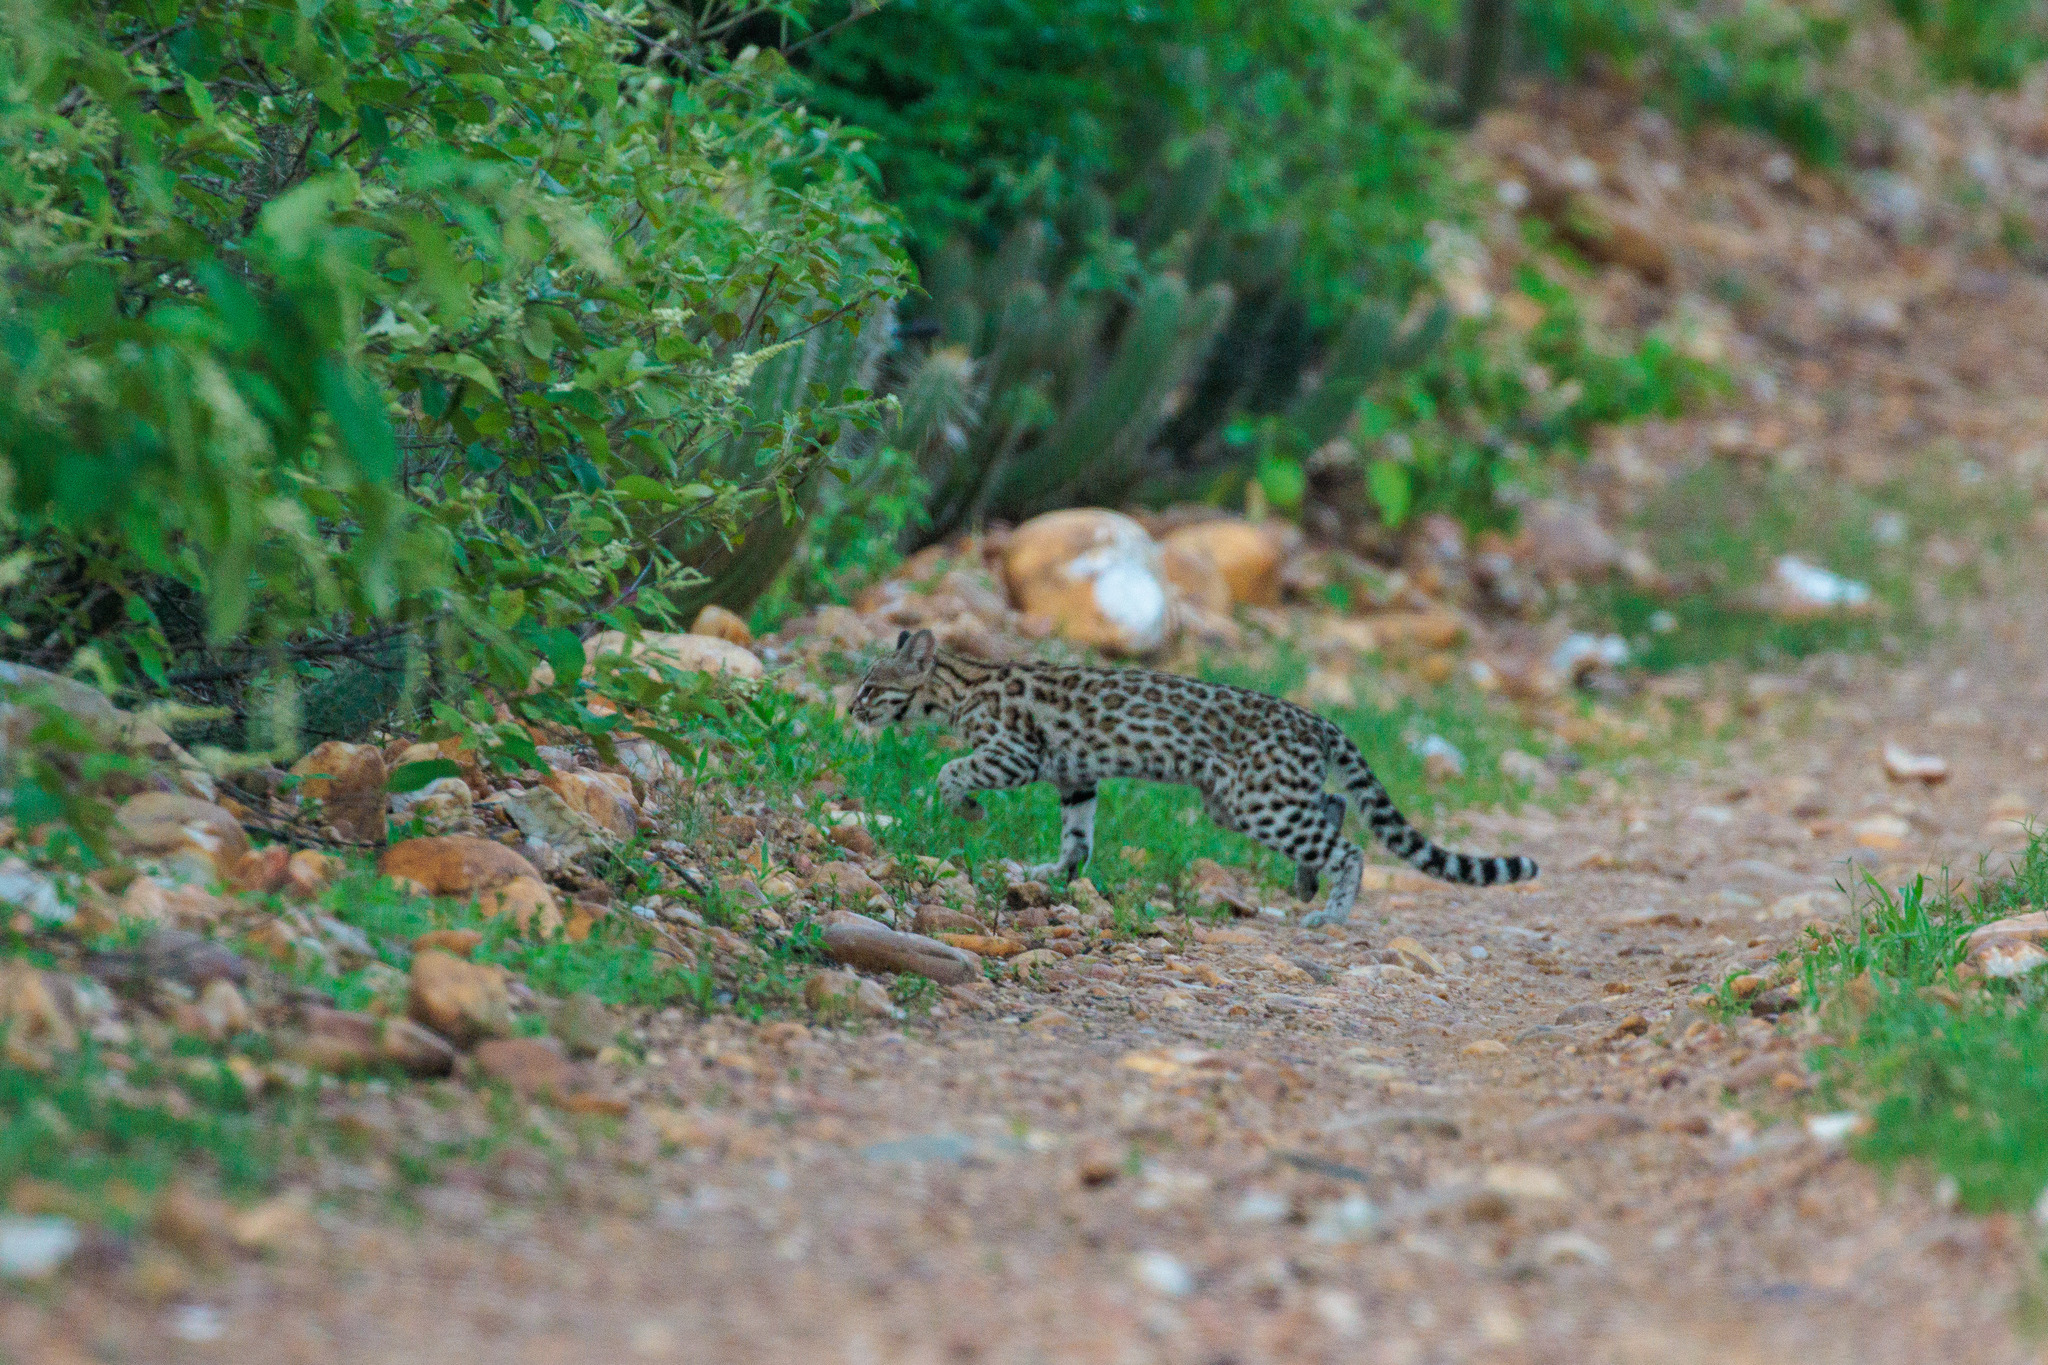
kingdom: Animalia
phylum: Chordata
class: Mammalia
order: Carnivora
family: Felidae
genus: Leopardus
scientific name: Leopardus
